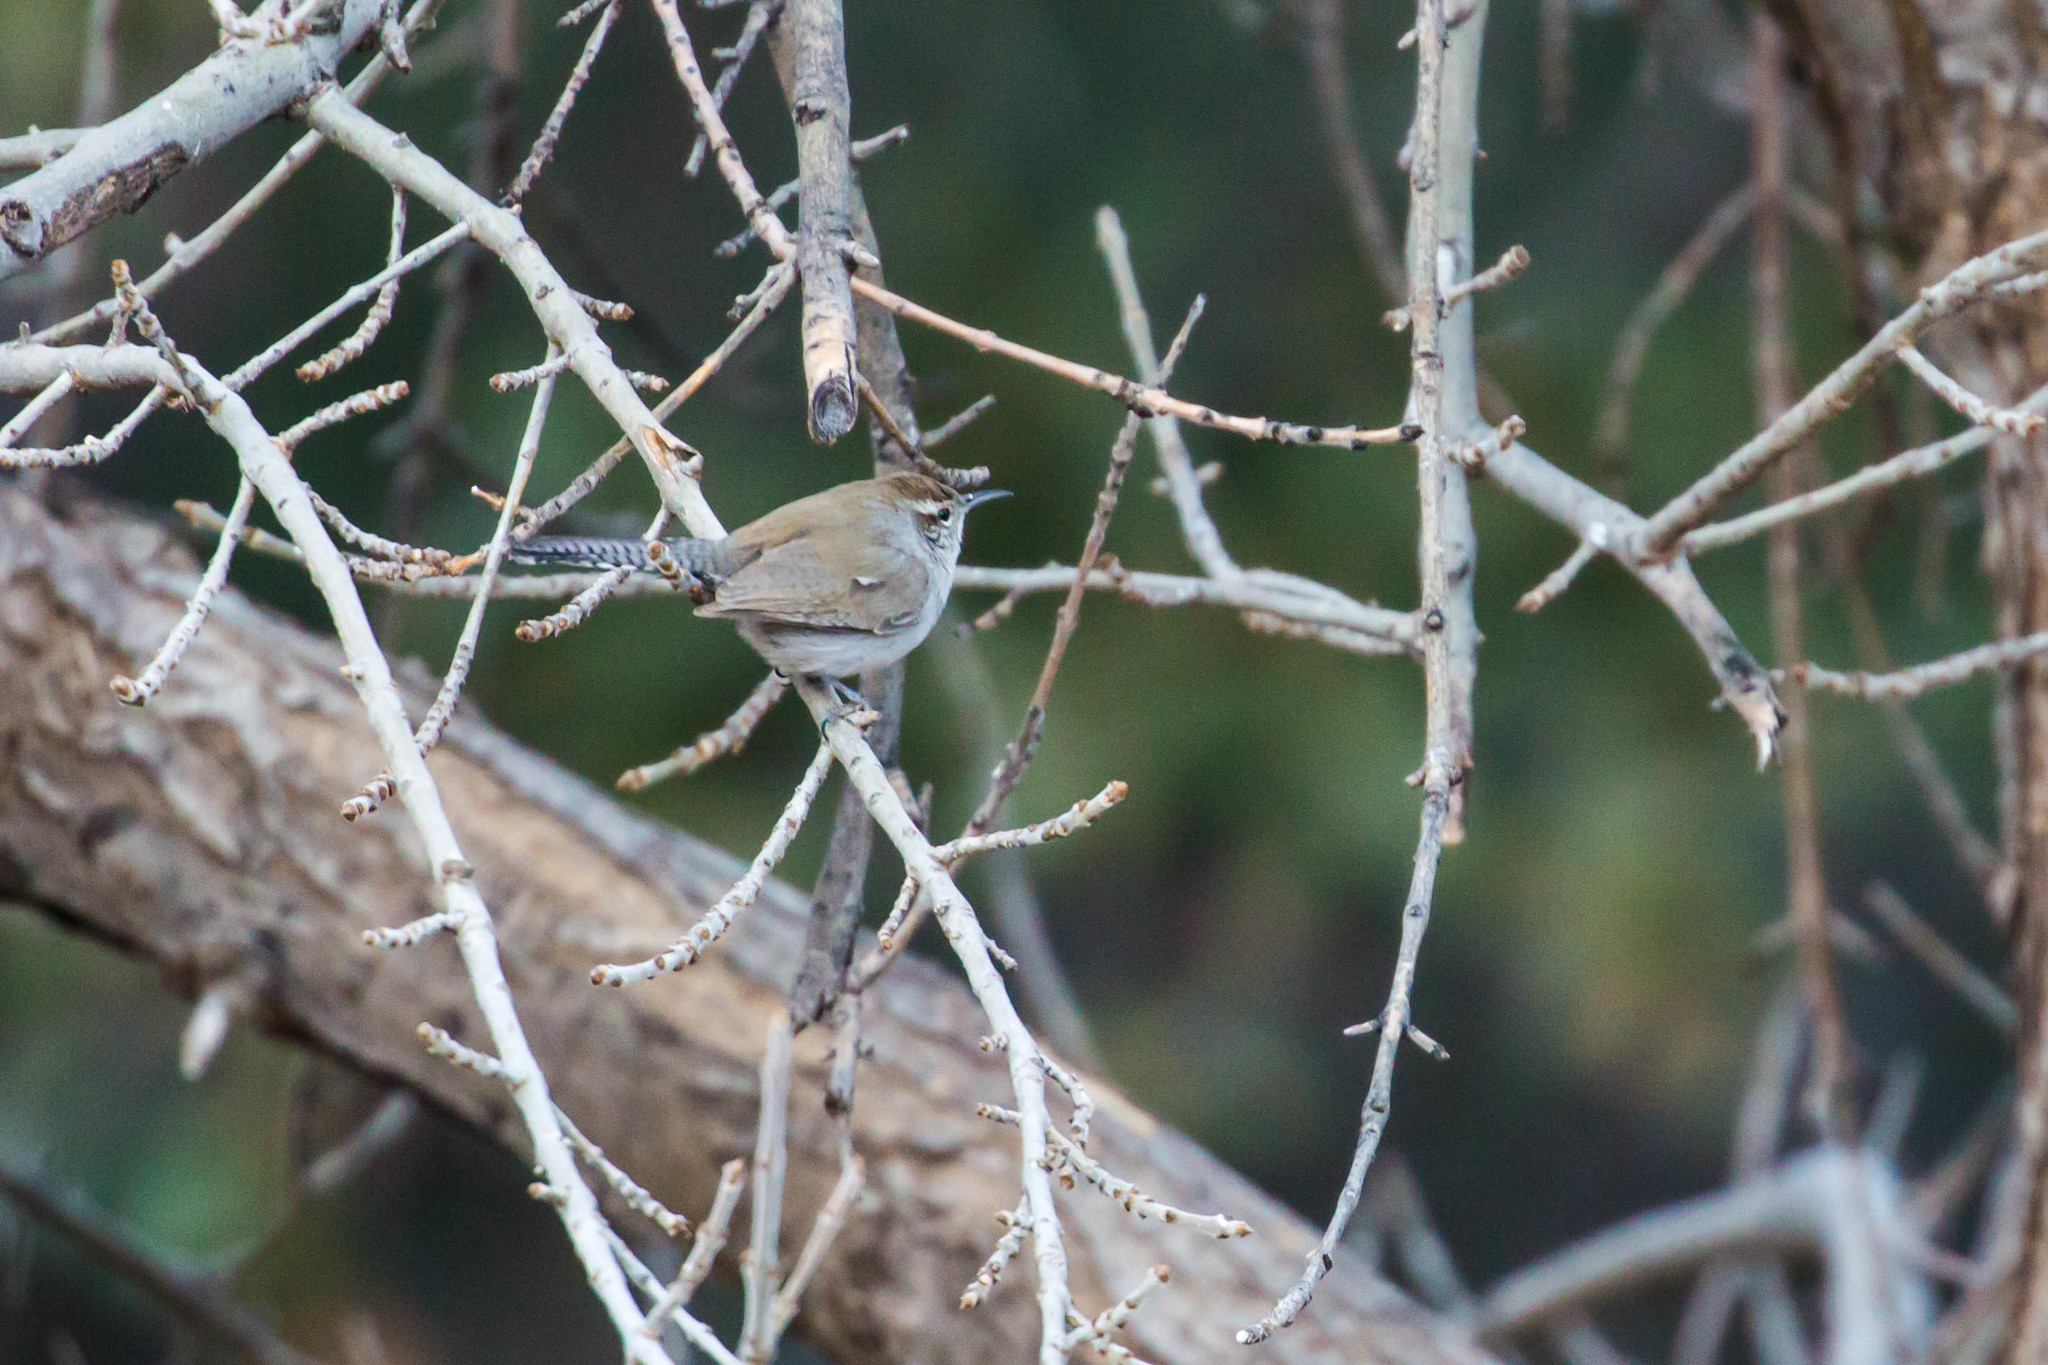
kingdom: Animalia
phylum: Chordata
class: Aves
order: Passeriformes
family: Troglodytidae
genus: Thryomanes
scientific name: Thryomanes bewickii
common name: Bewick's wren
